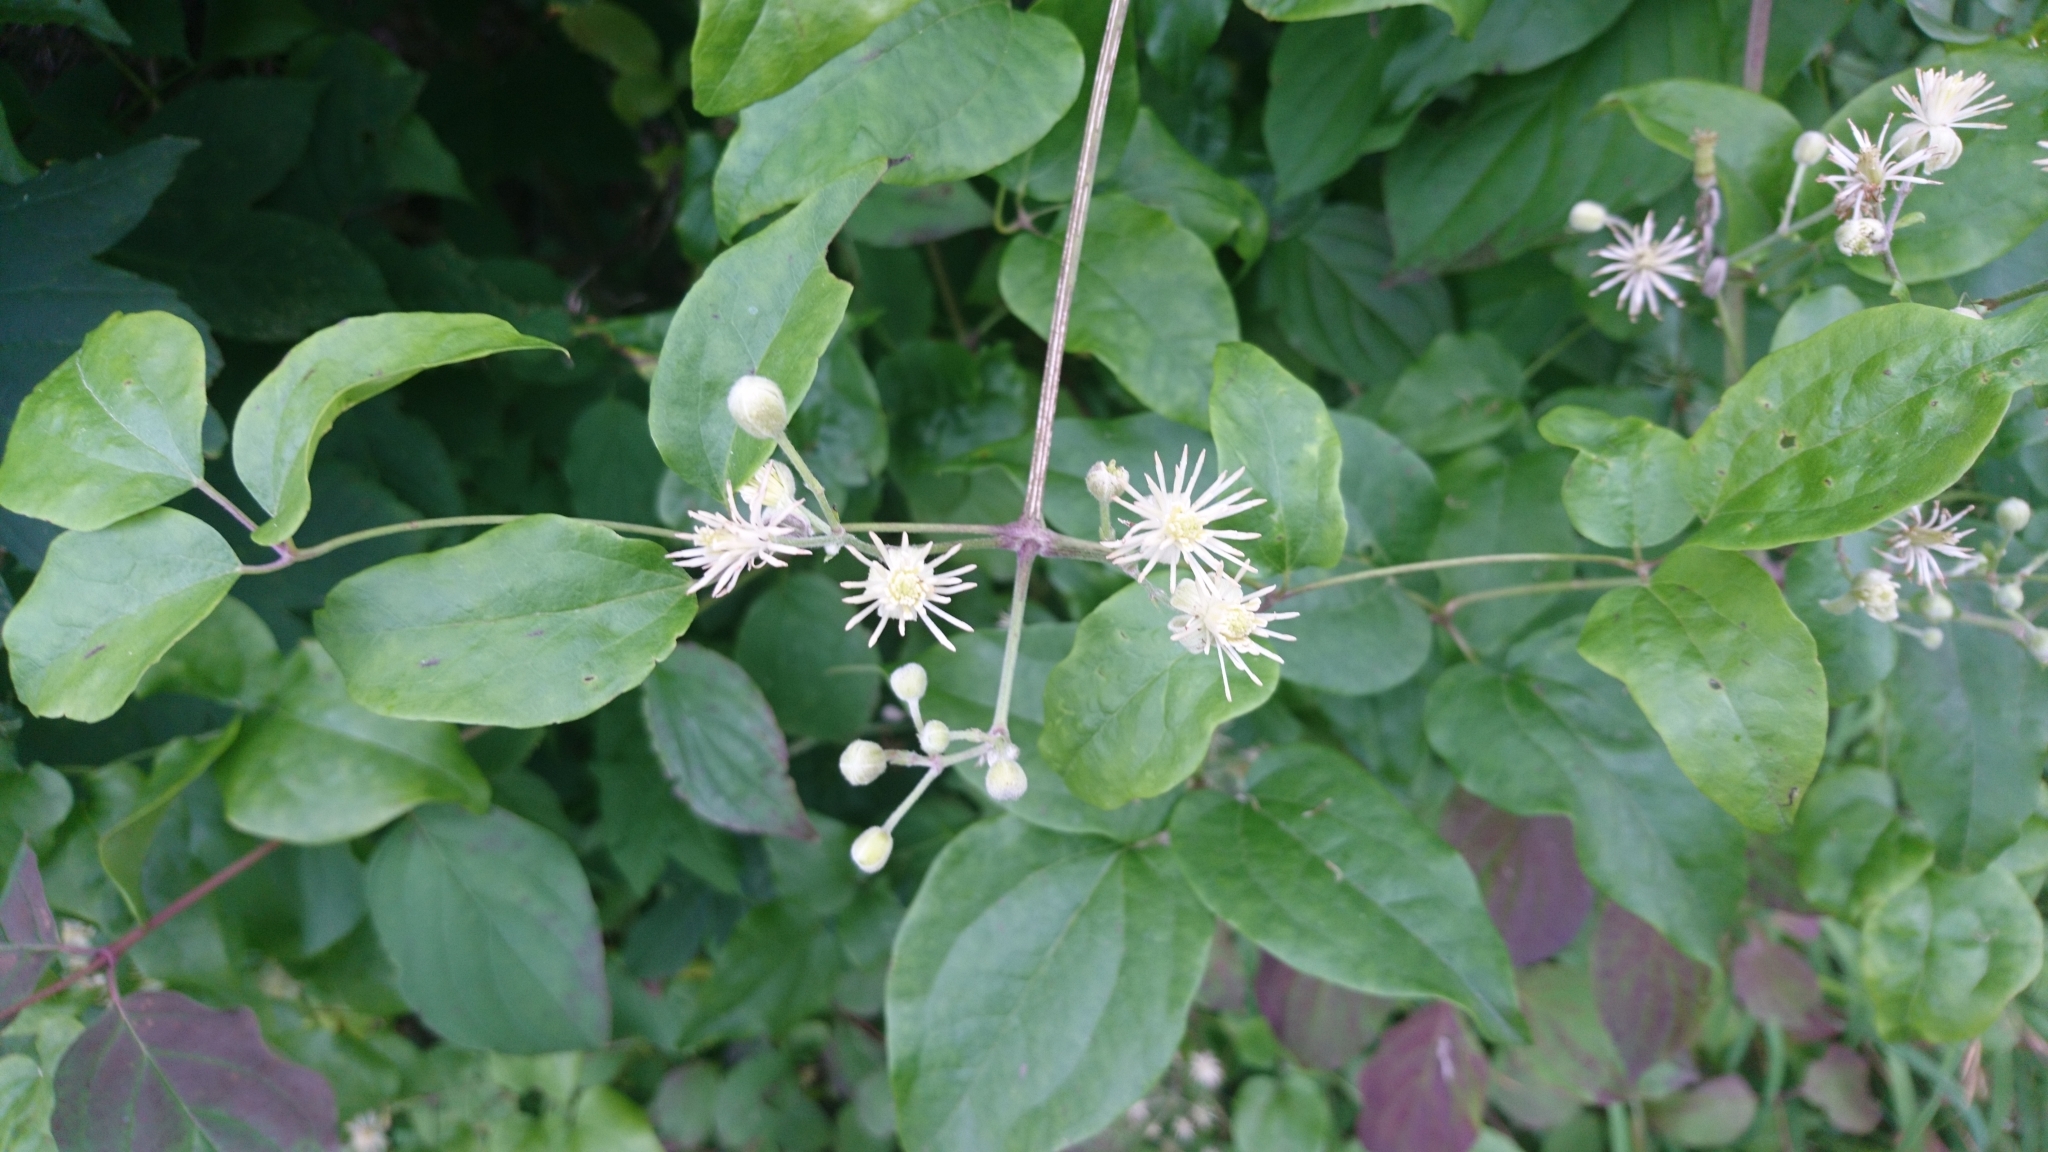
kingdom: Plantae
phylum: Tracheophyta
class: Magnoliopsida
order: Ranunculales
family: Ranunculaceae
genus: Clematis
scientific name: Clematis vitalba
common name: Evergreen clematis
